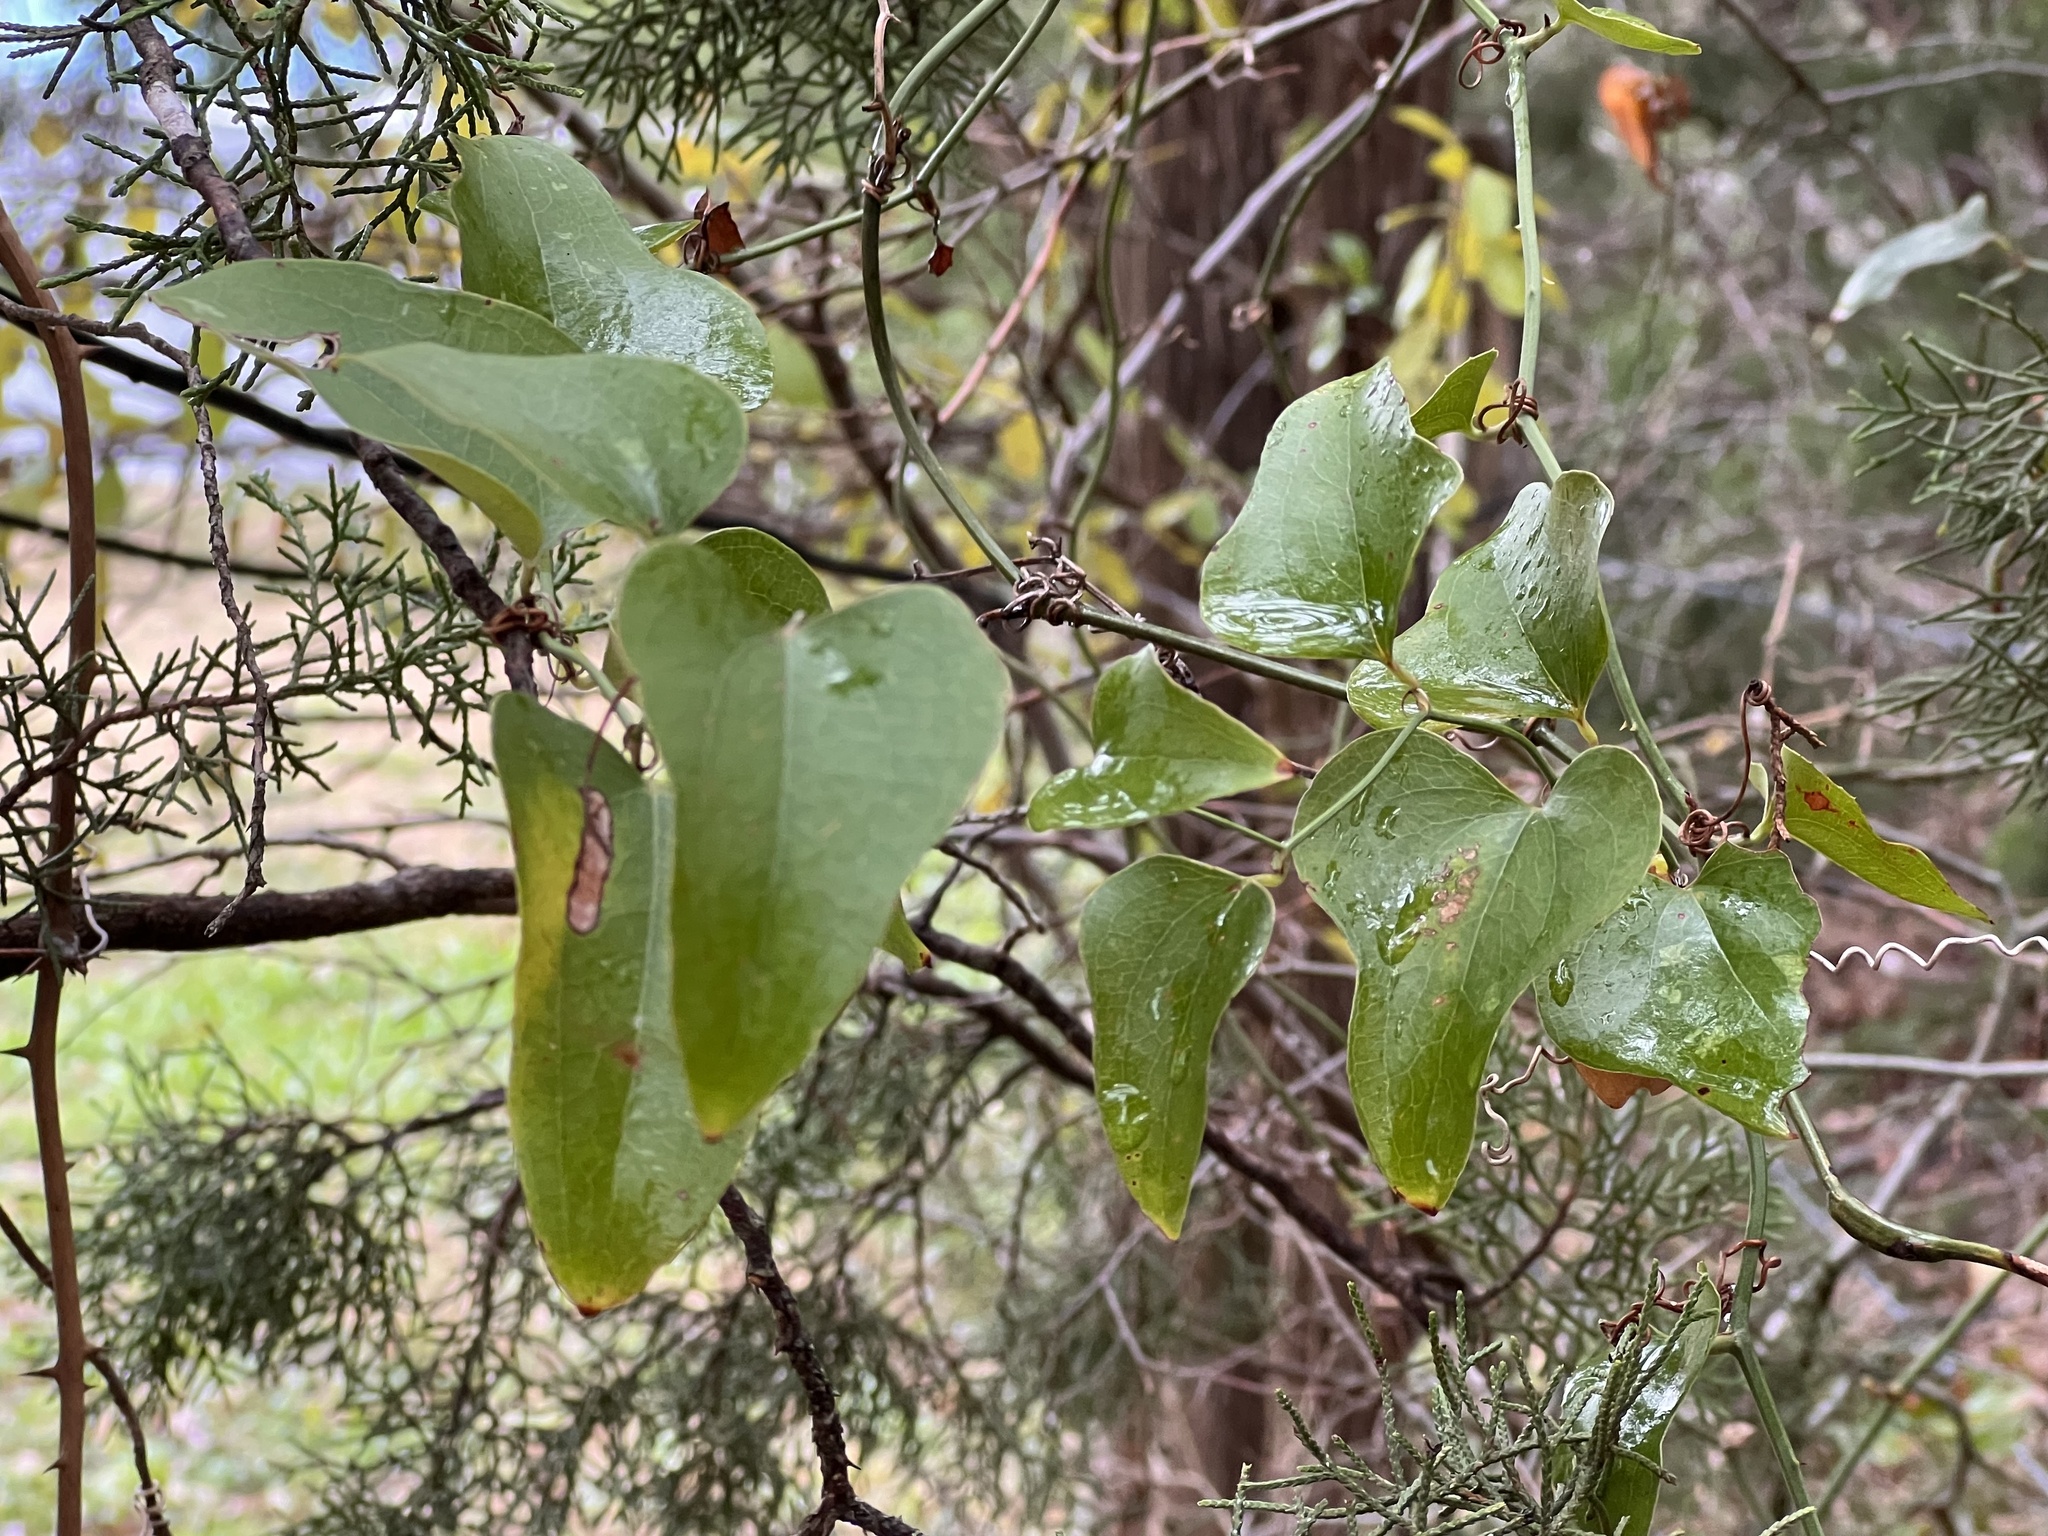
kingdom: Plantae
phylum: Tracheophyta
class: Liliopsida
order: Liliales
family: Smilacaceae
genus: Smilax
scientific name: Smilax bona-nox
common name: Catbrier
